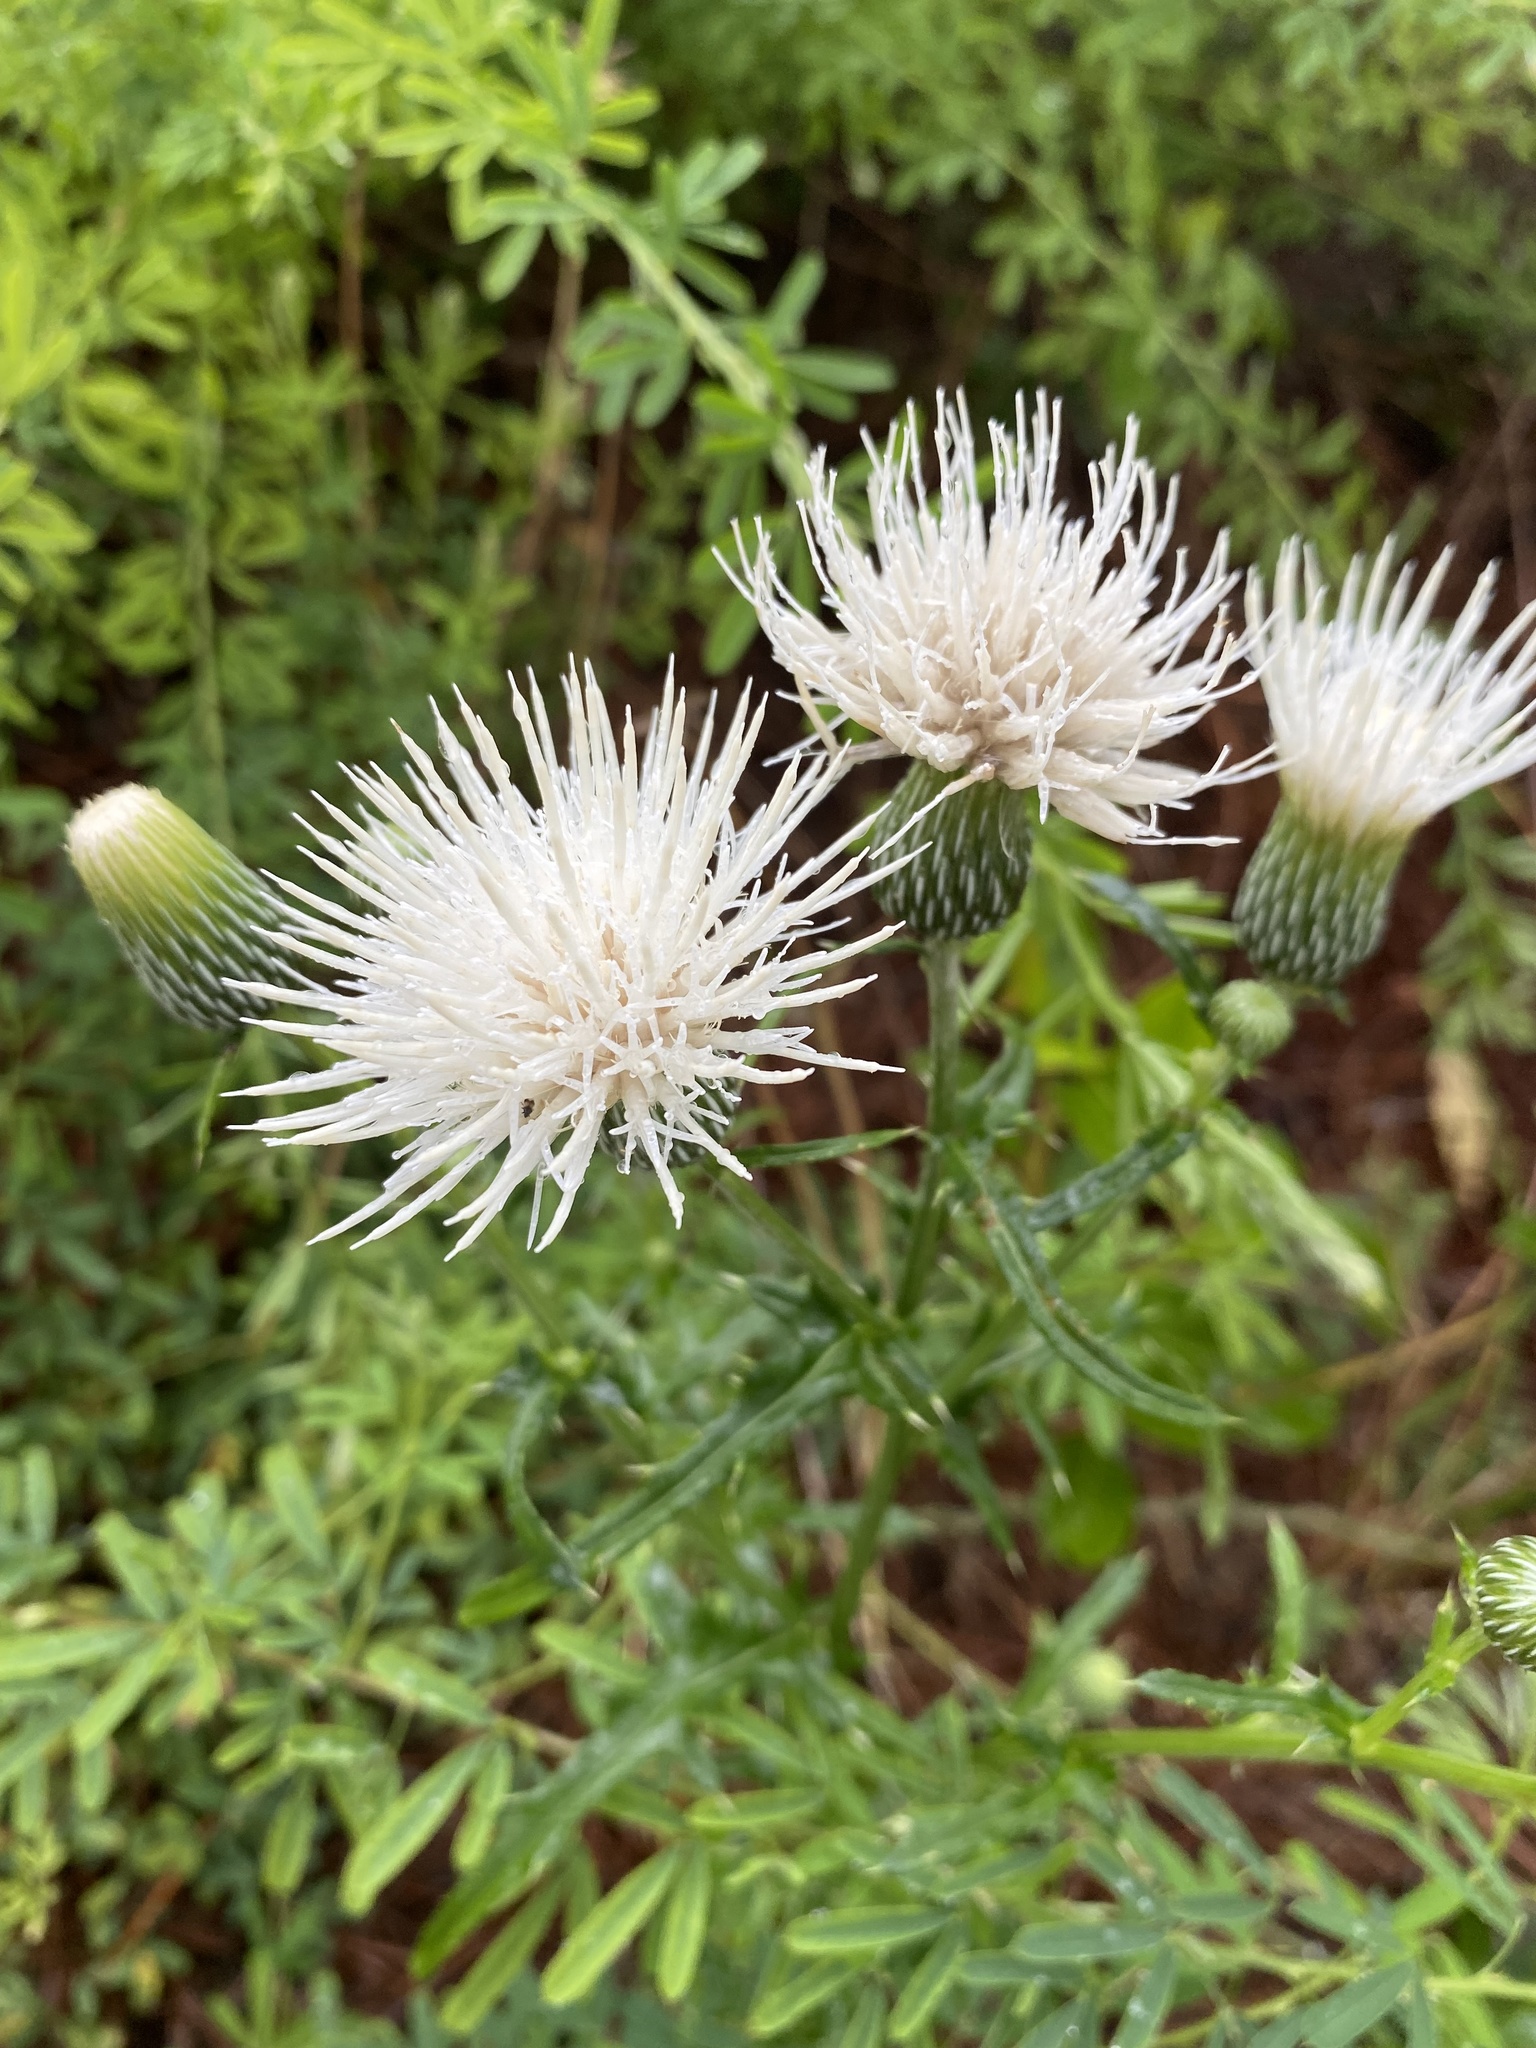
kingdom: Plantae
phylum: Tracheophyta
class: Magnoliopsida
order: Asterales
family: Asteraceae
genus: Cirsium
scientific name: Cirsium nuttalii
